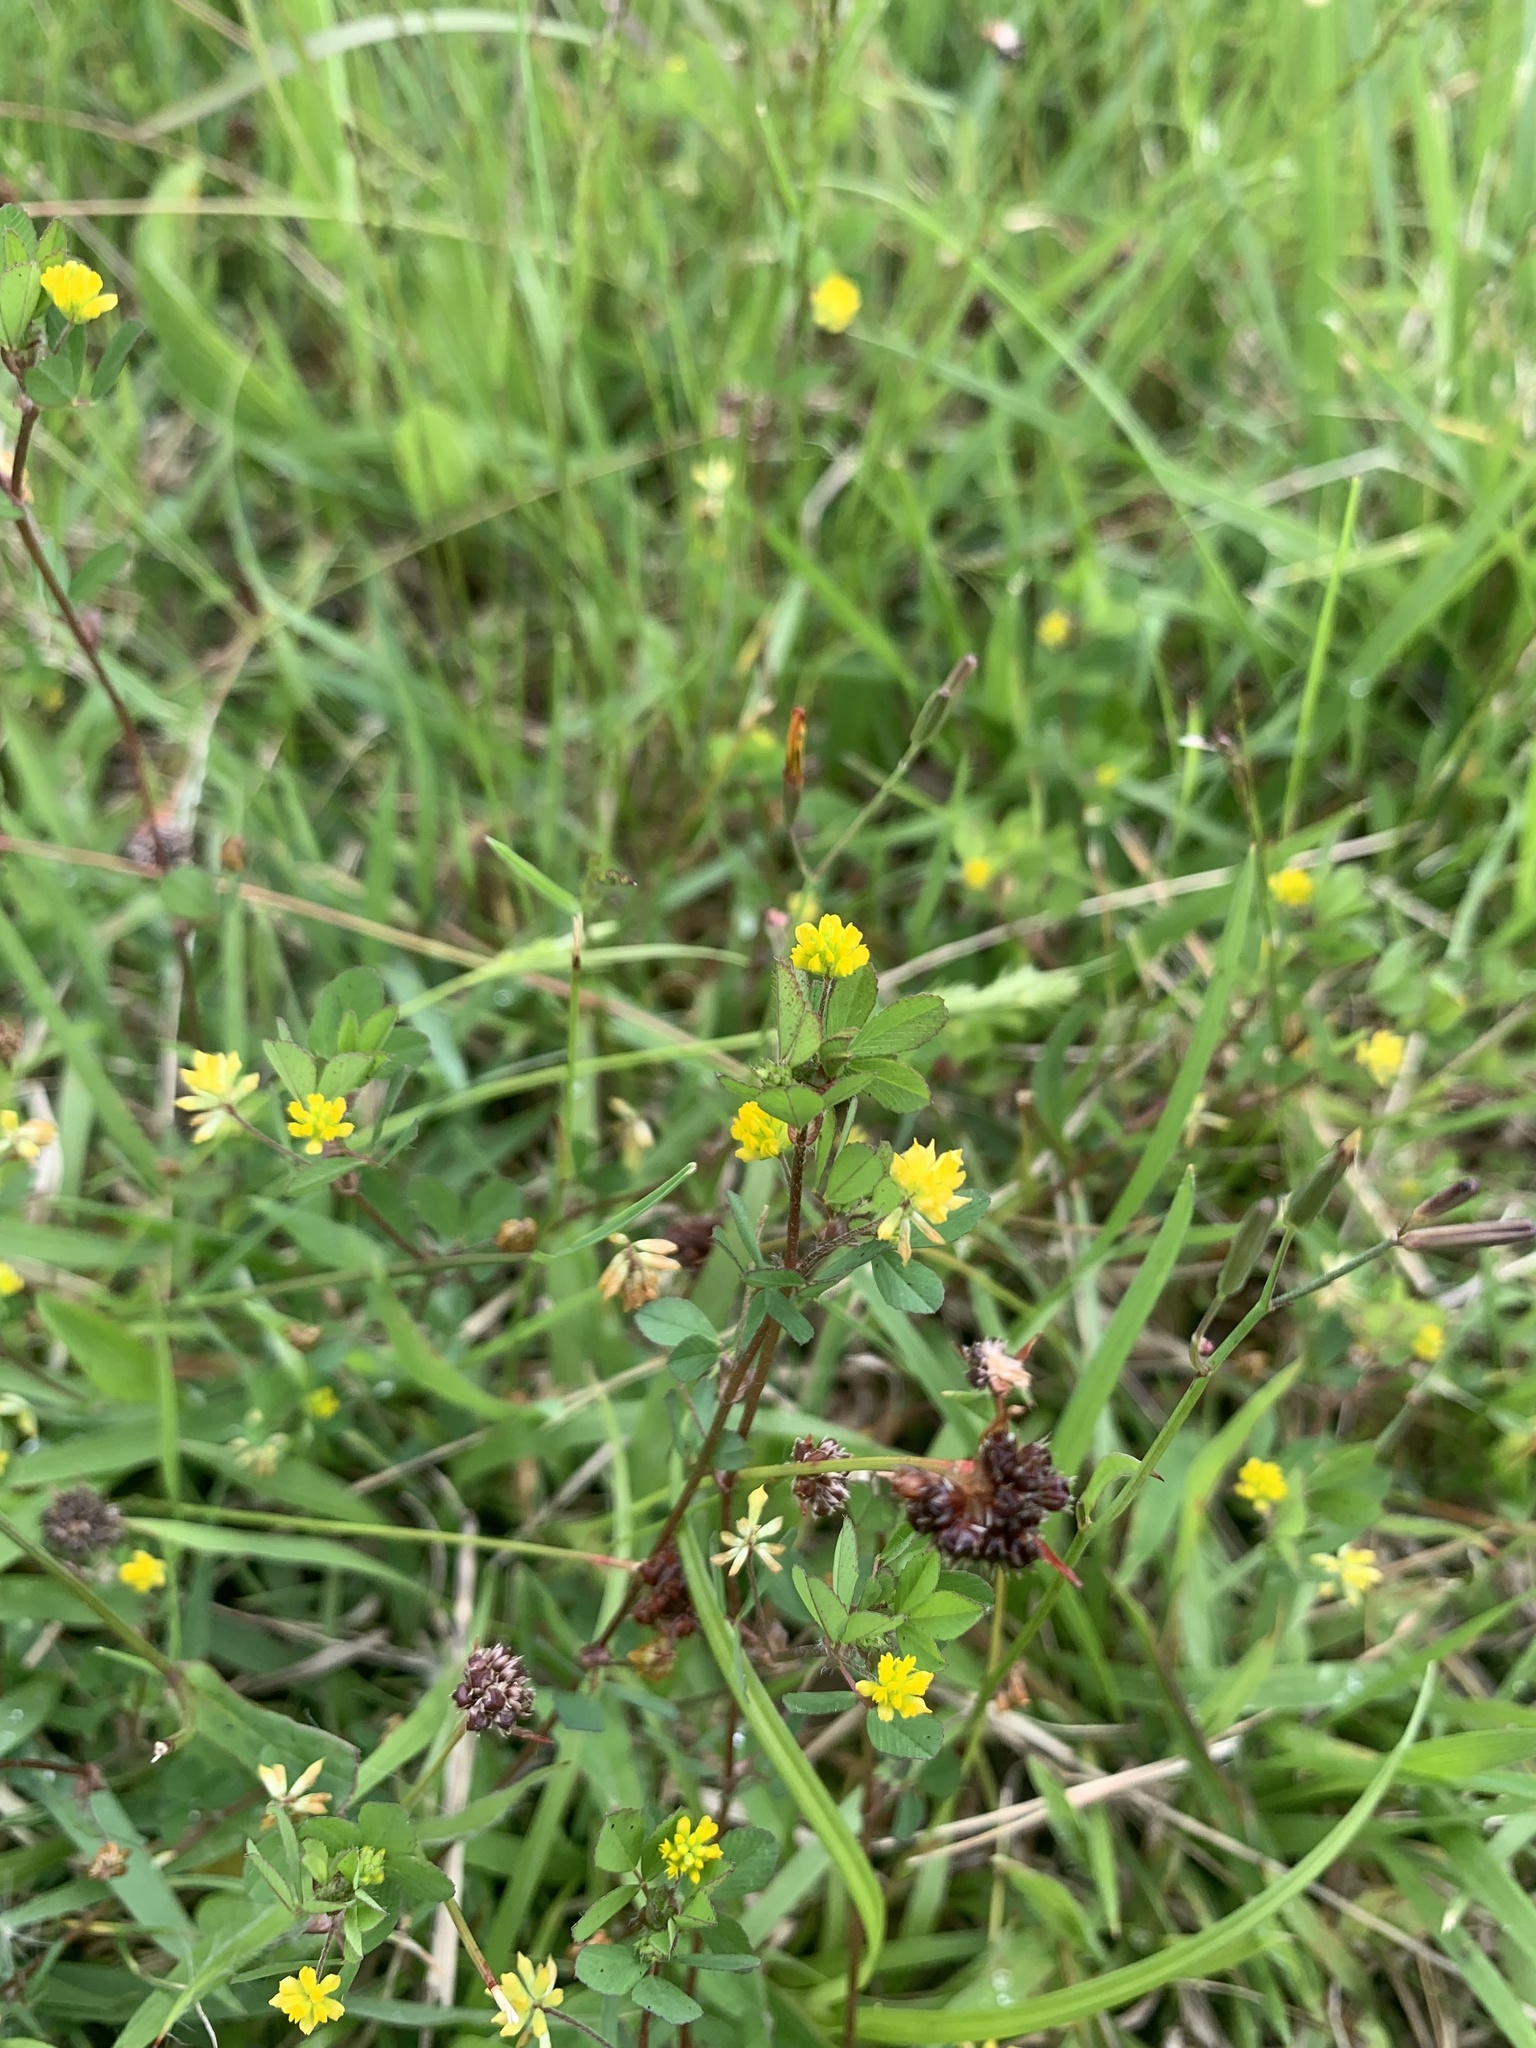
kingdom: Plantae
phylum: Tracheophyta
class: Magnoliopsida
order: Fabales
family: Fabaceae
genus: Trifolium
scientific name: Trifolium dubium
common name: Suckling clover
